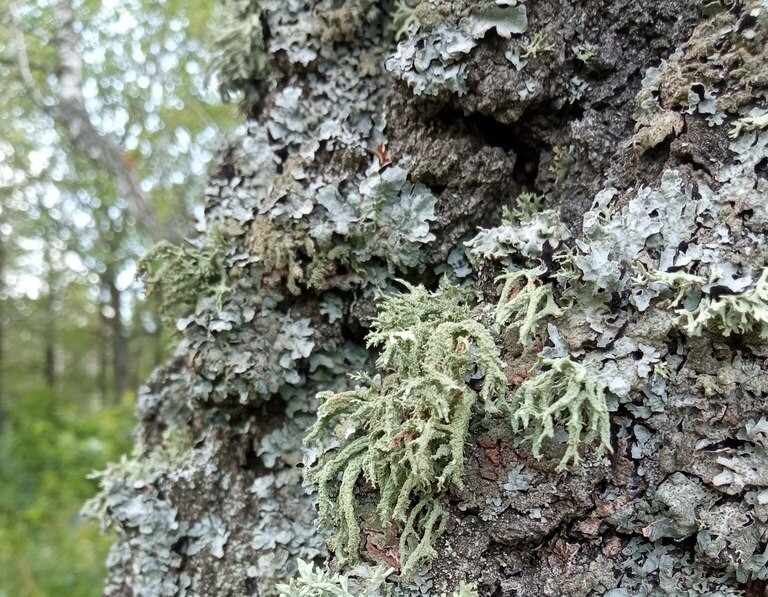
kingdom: Fungi
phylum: Ascomycota
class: Lecanoromycetes
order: Lecanorales
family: Parmeliaceae
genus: Evernia
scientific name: Evernia mesomorpha
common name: Boreal oak moss lichen
